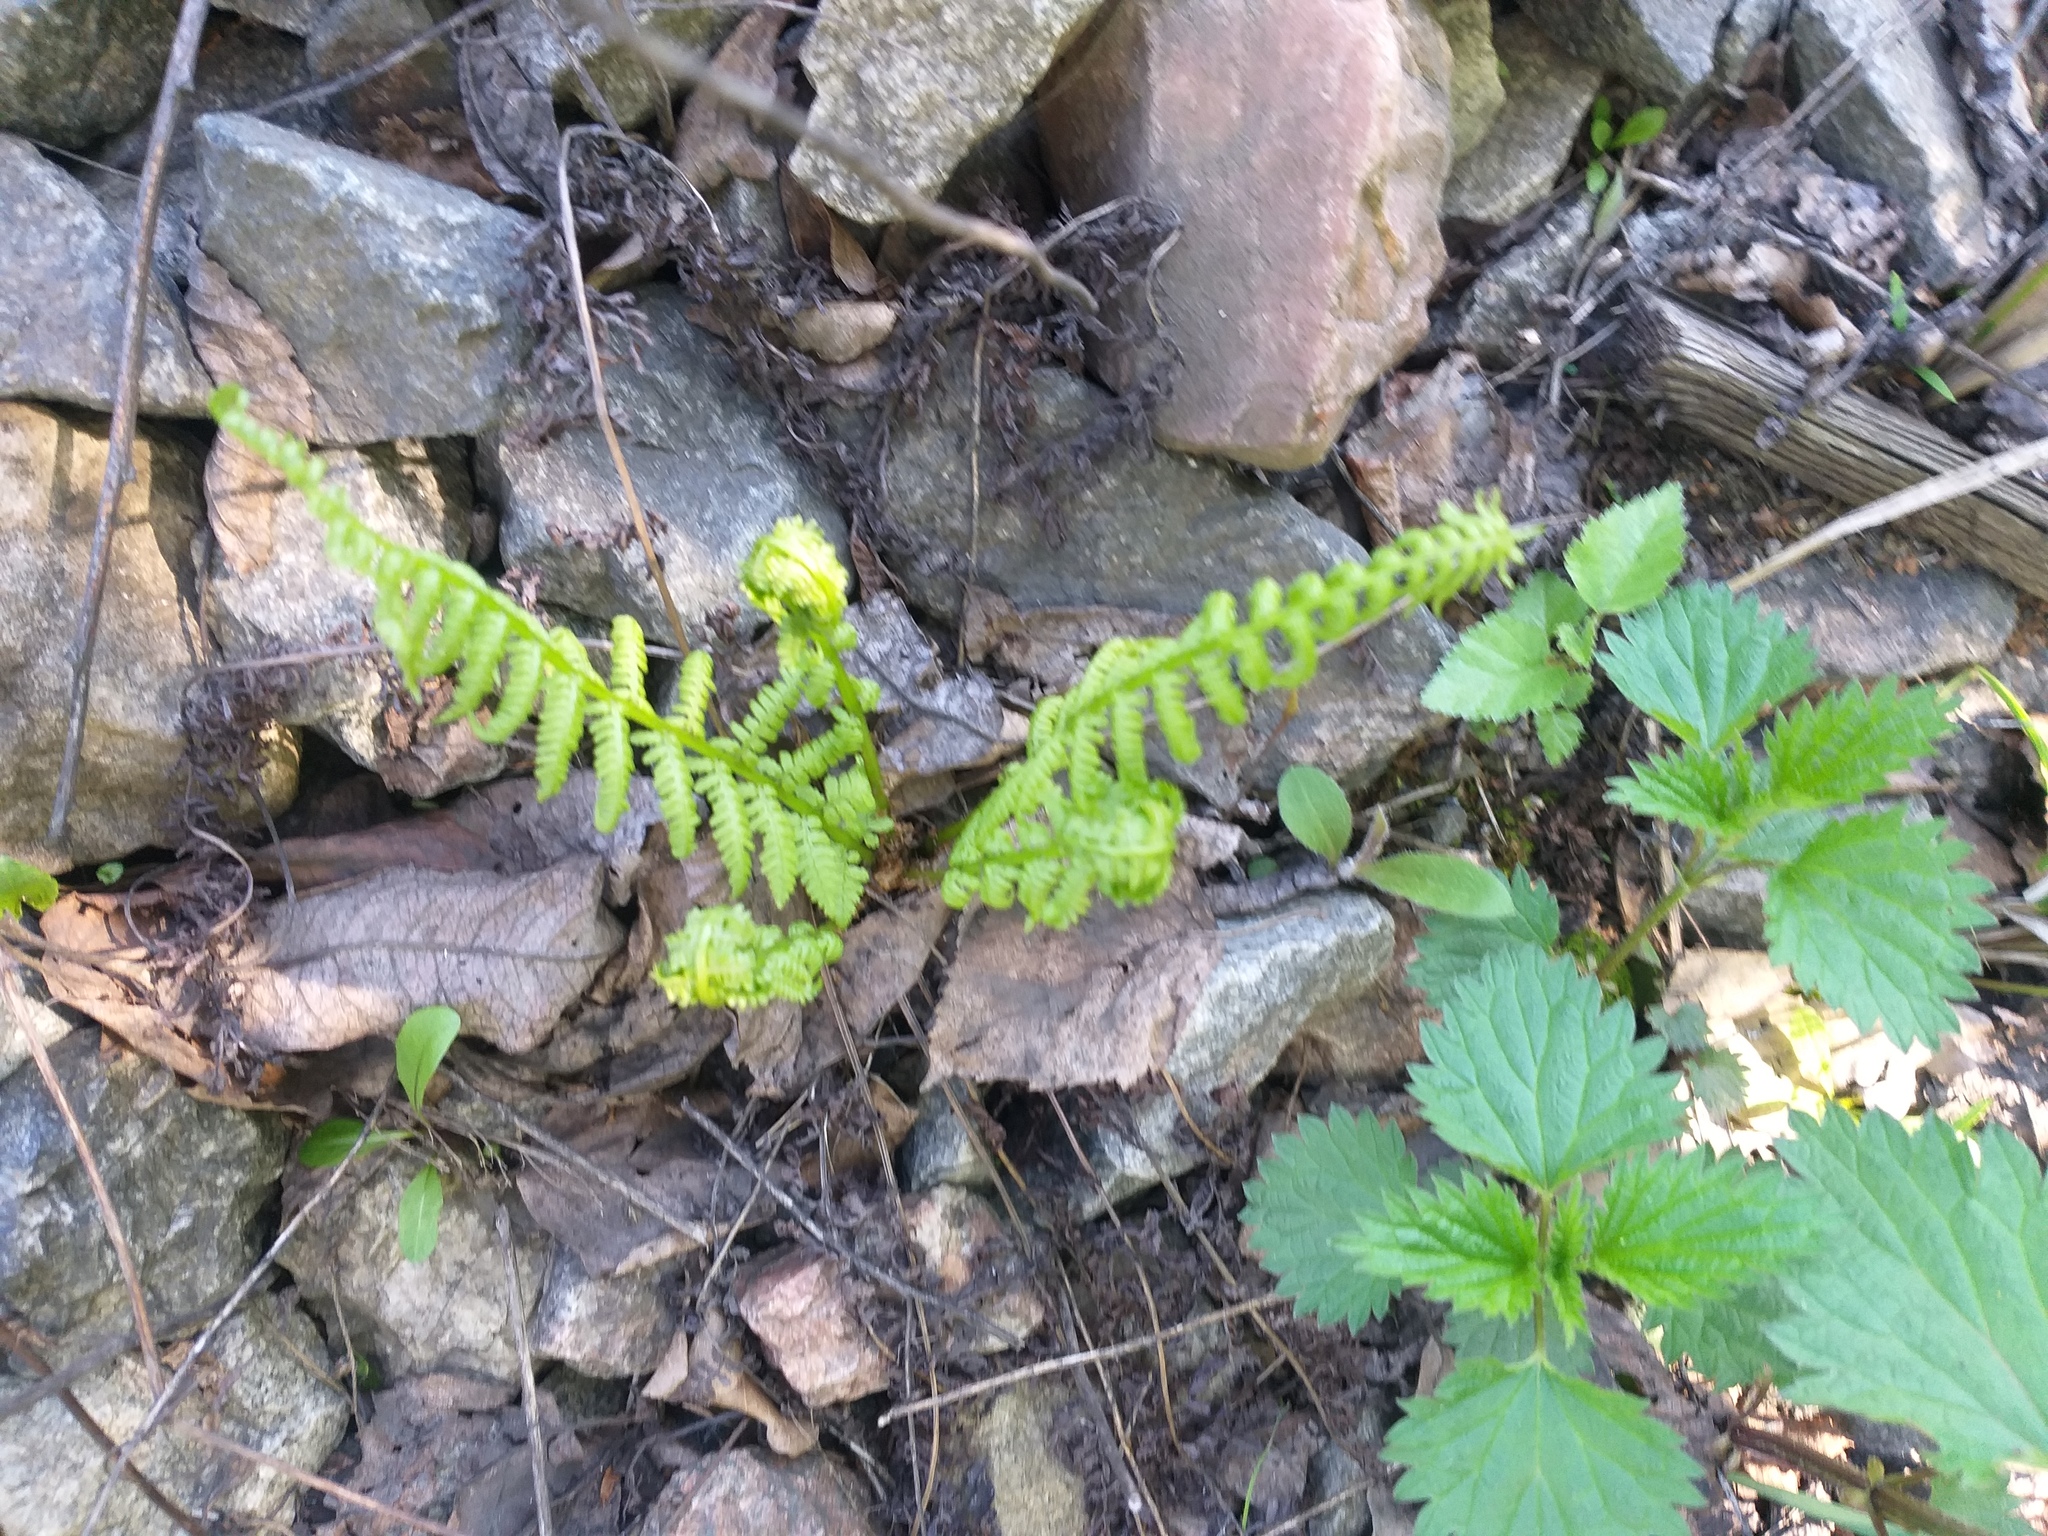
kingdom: Plantae
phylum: Tracheophyta
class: Polypodiopsida
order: Polypodiales
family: Athyriaceae
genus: Athyrium
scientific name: Athyrium filix-femina
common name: Lady fern
